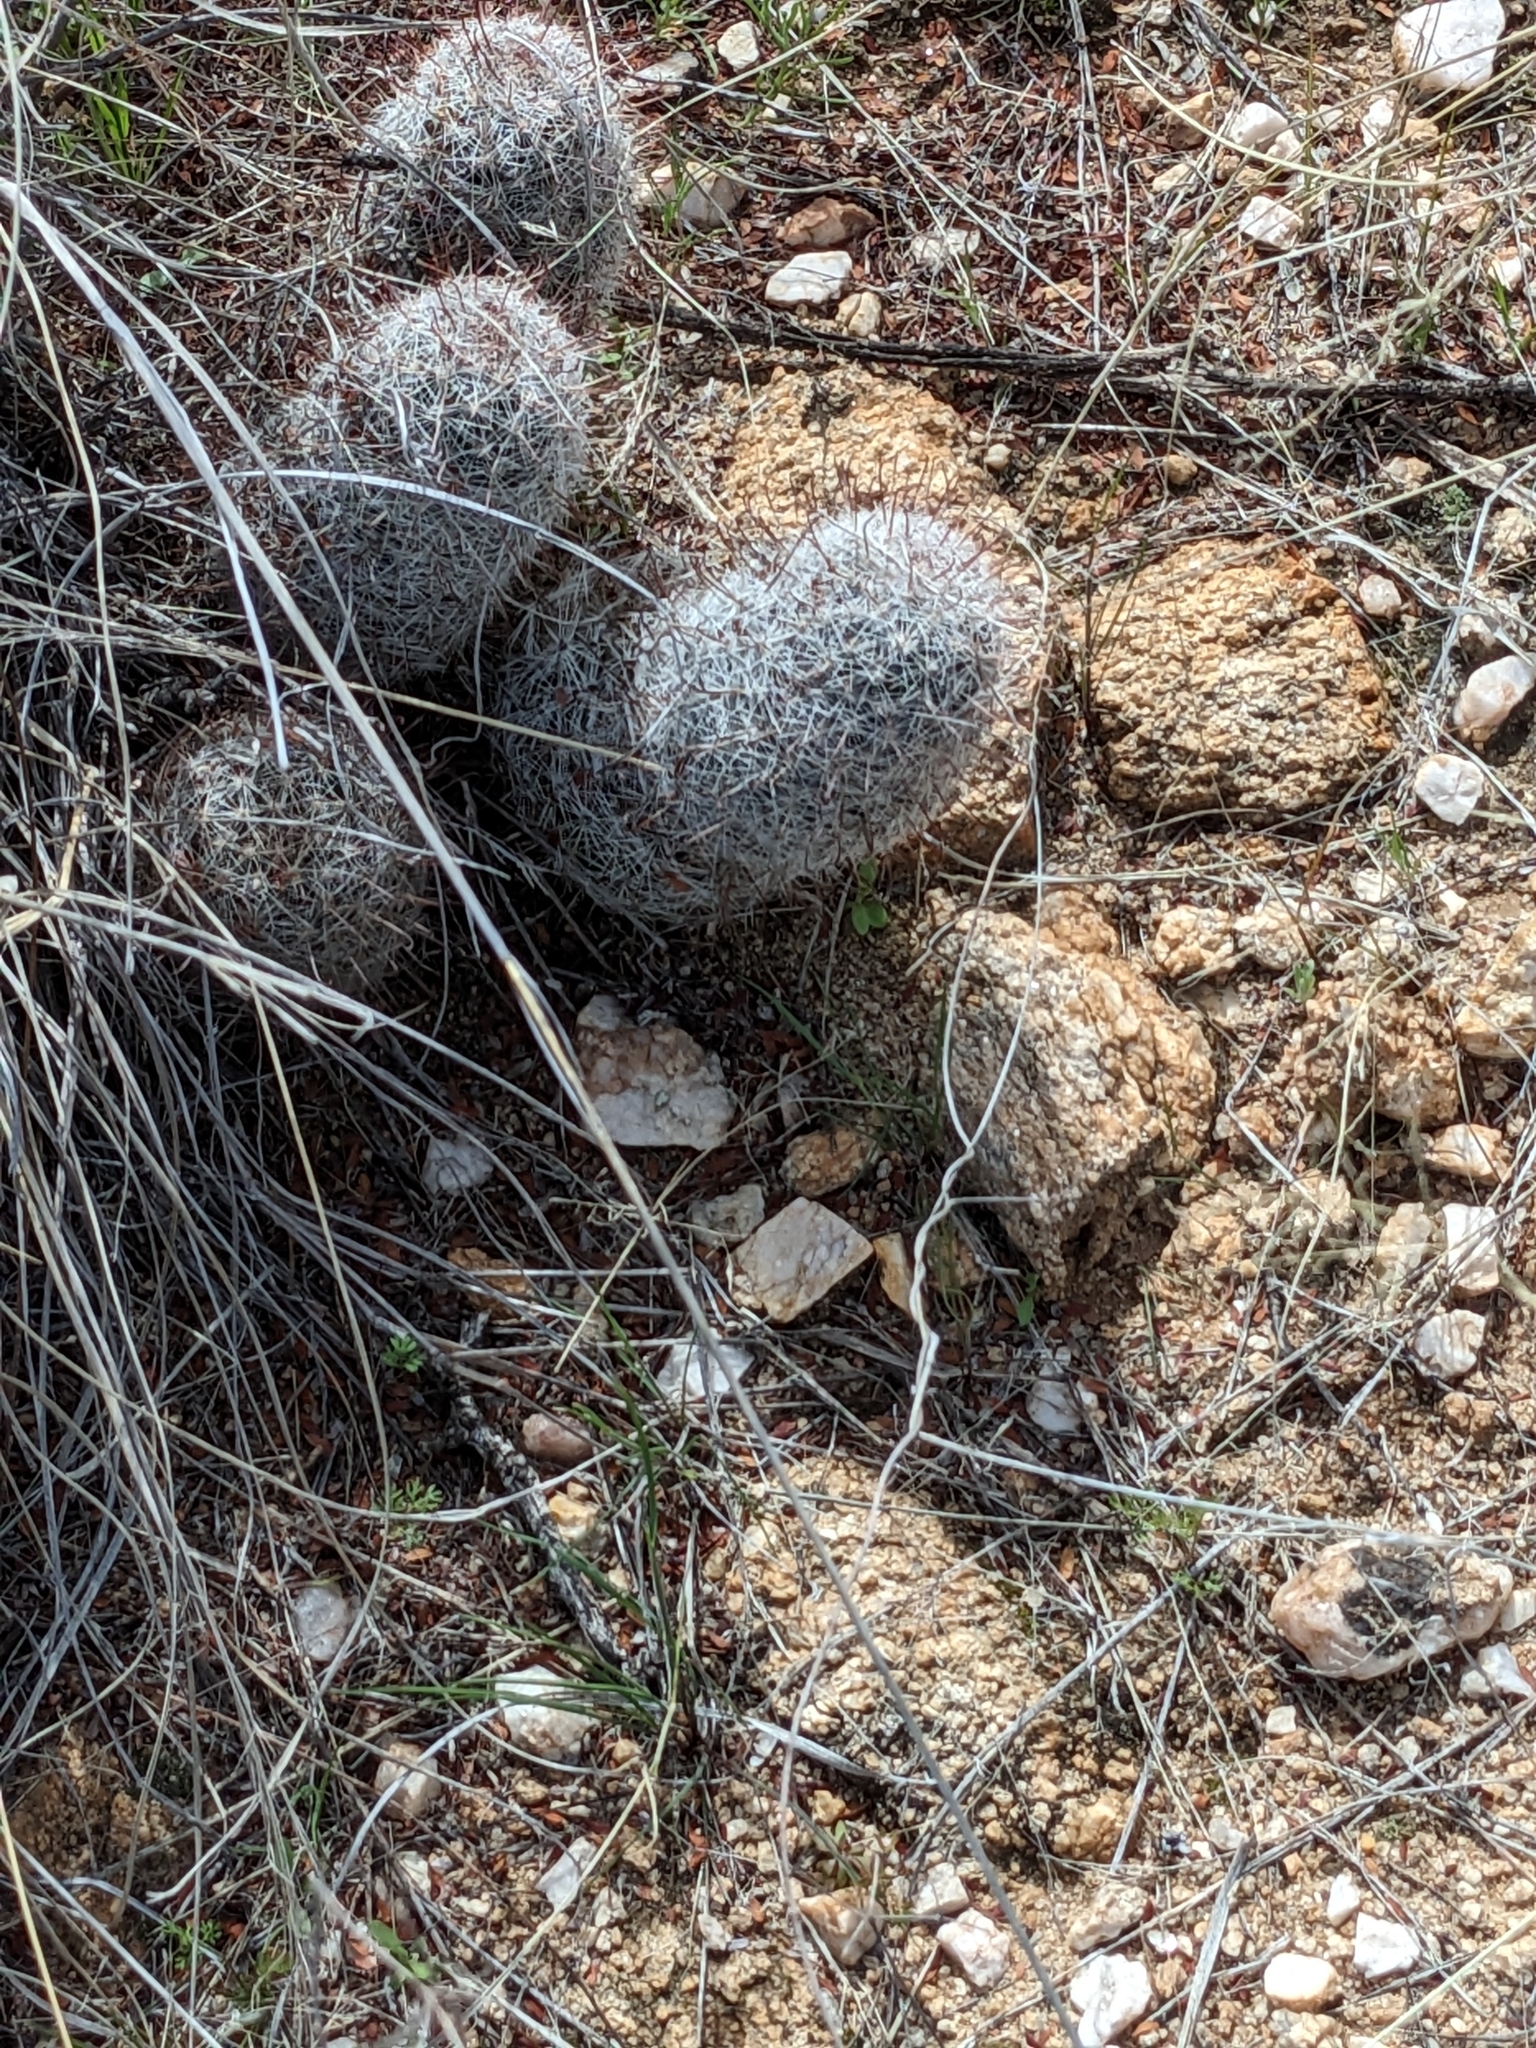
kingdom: Plantae
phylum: Tracheophyta
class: Magnoliopsida
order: Caryophyllales
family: Cactaceae
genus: Cochemiea
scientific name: Cochemiea grahamii
